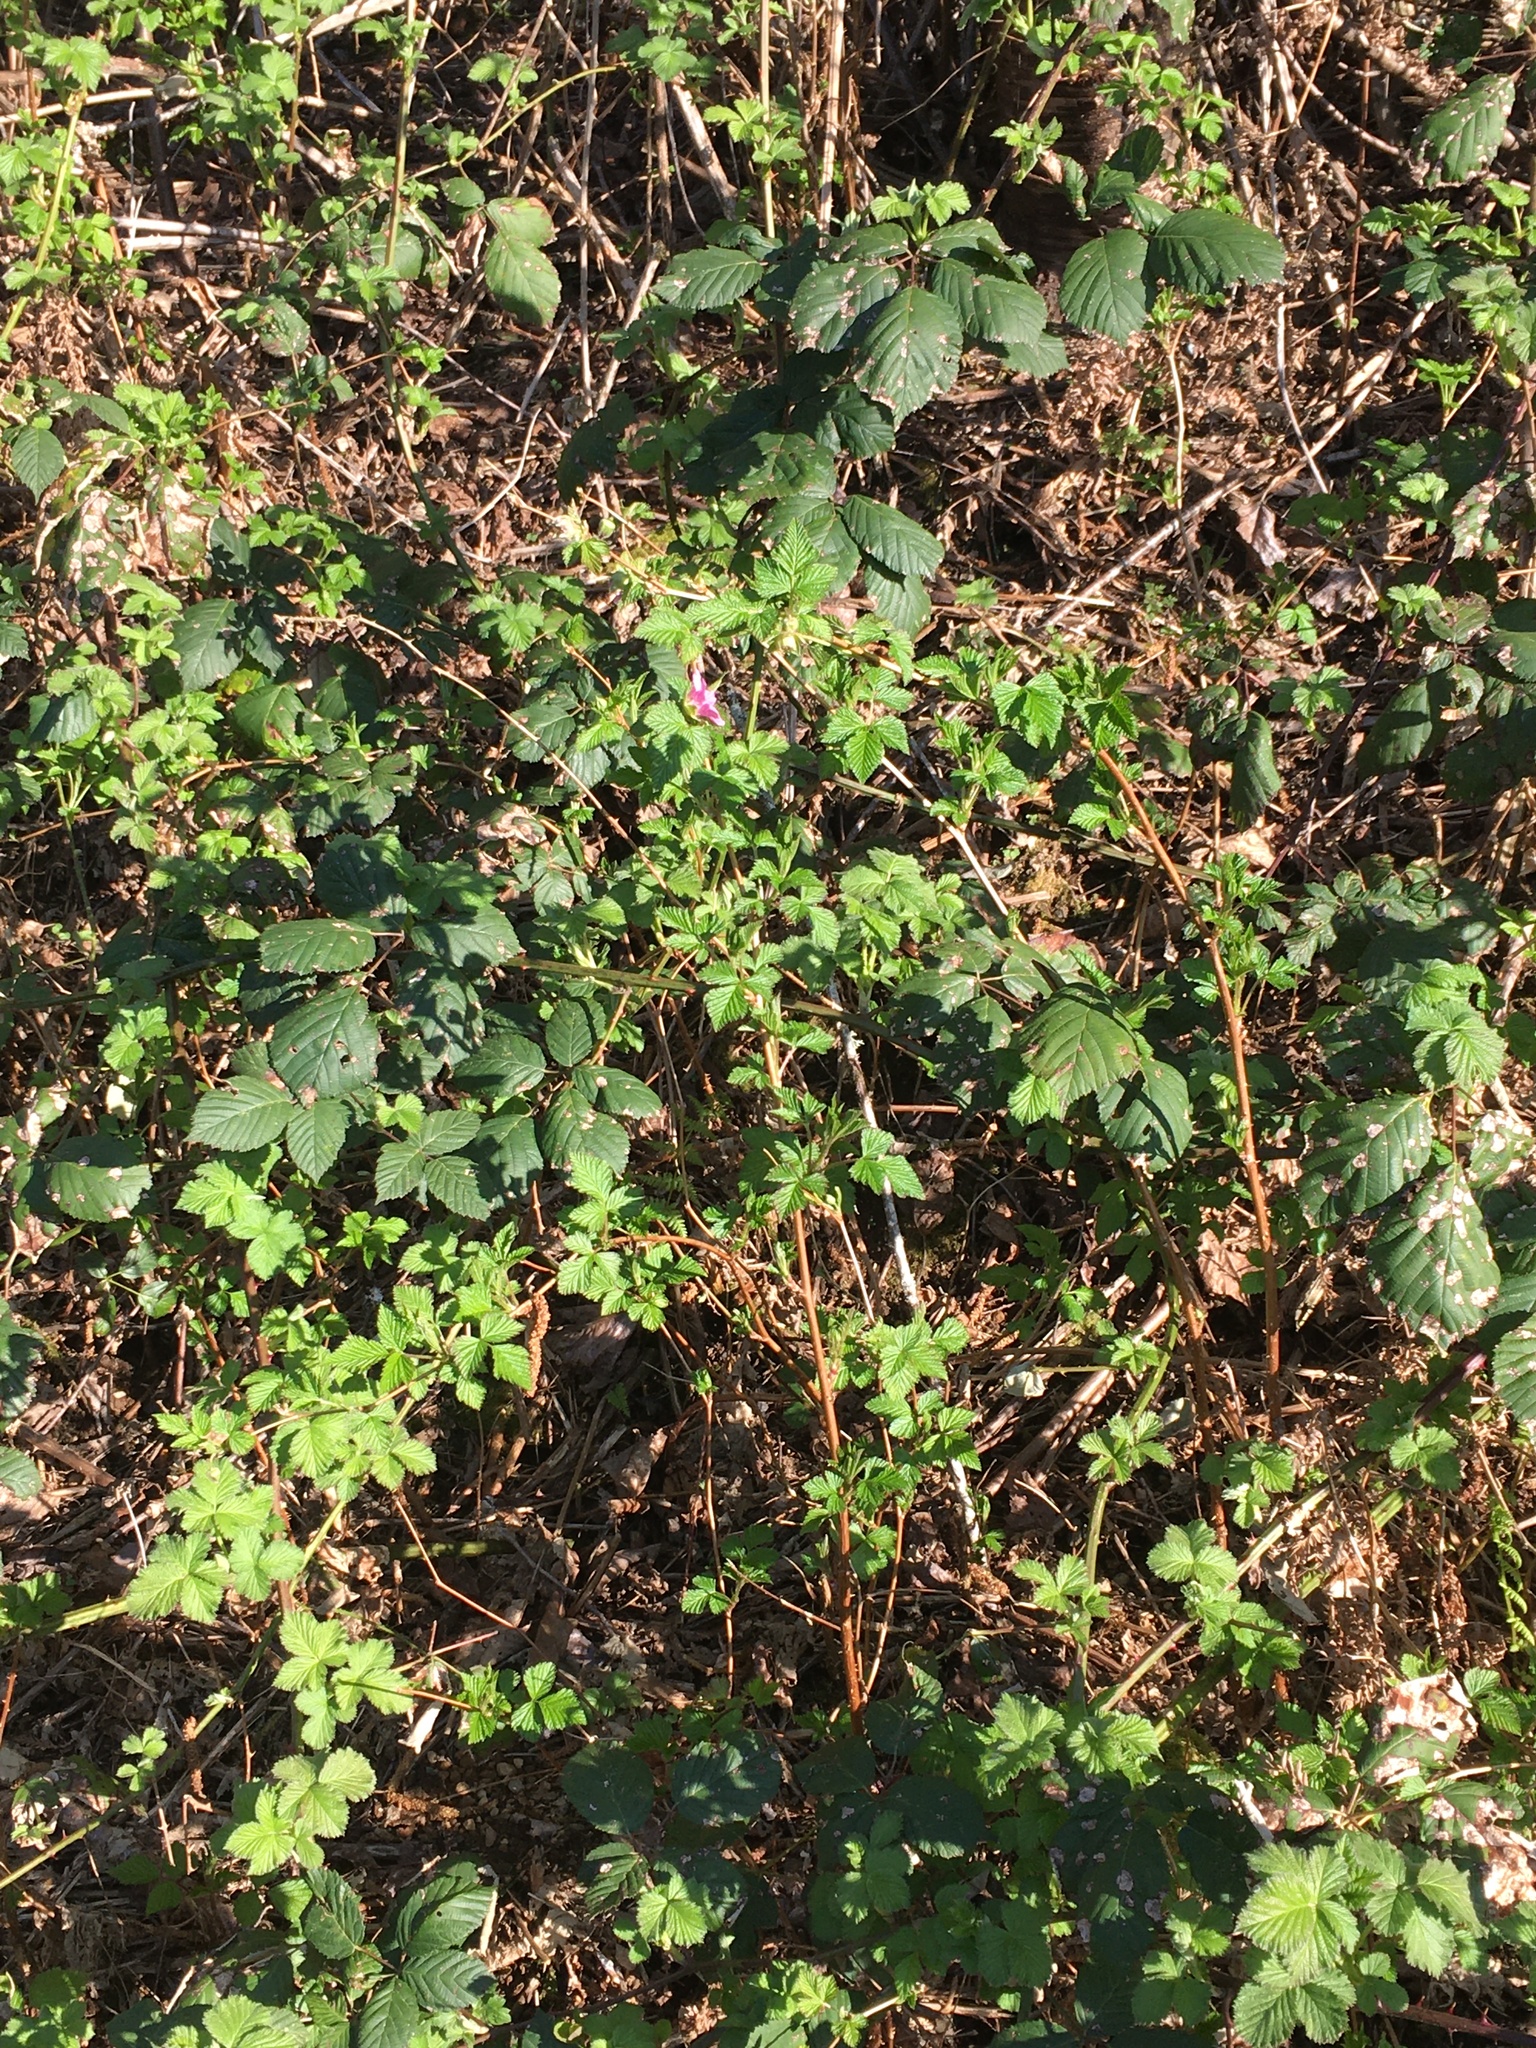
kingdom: Plantae
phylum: Tracheophyta
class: Magnoliopsida
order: Rosales
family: Rosaceae
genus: Rubus
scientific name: Rubus spectabilis
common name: Salmonberry
